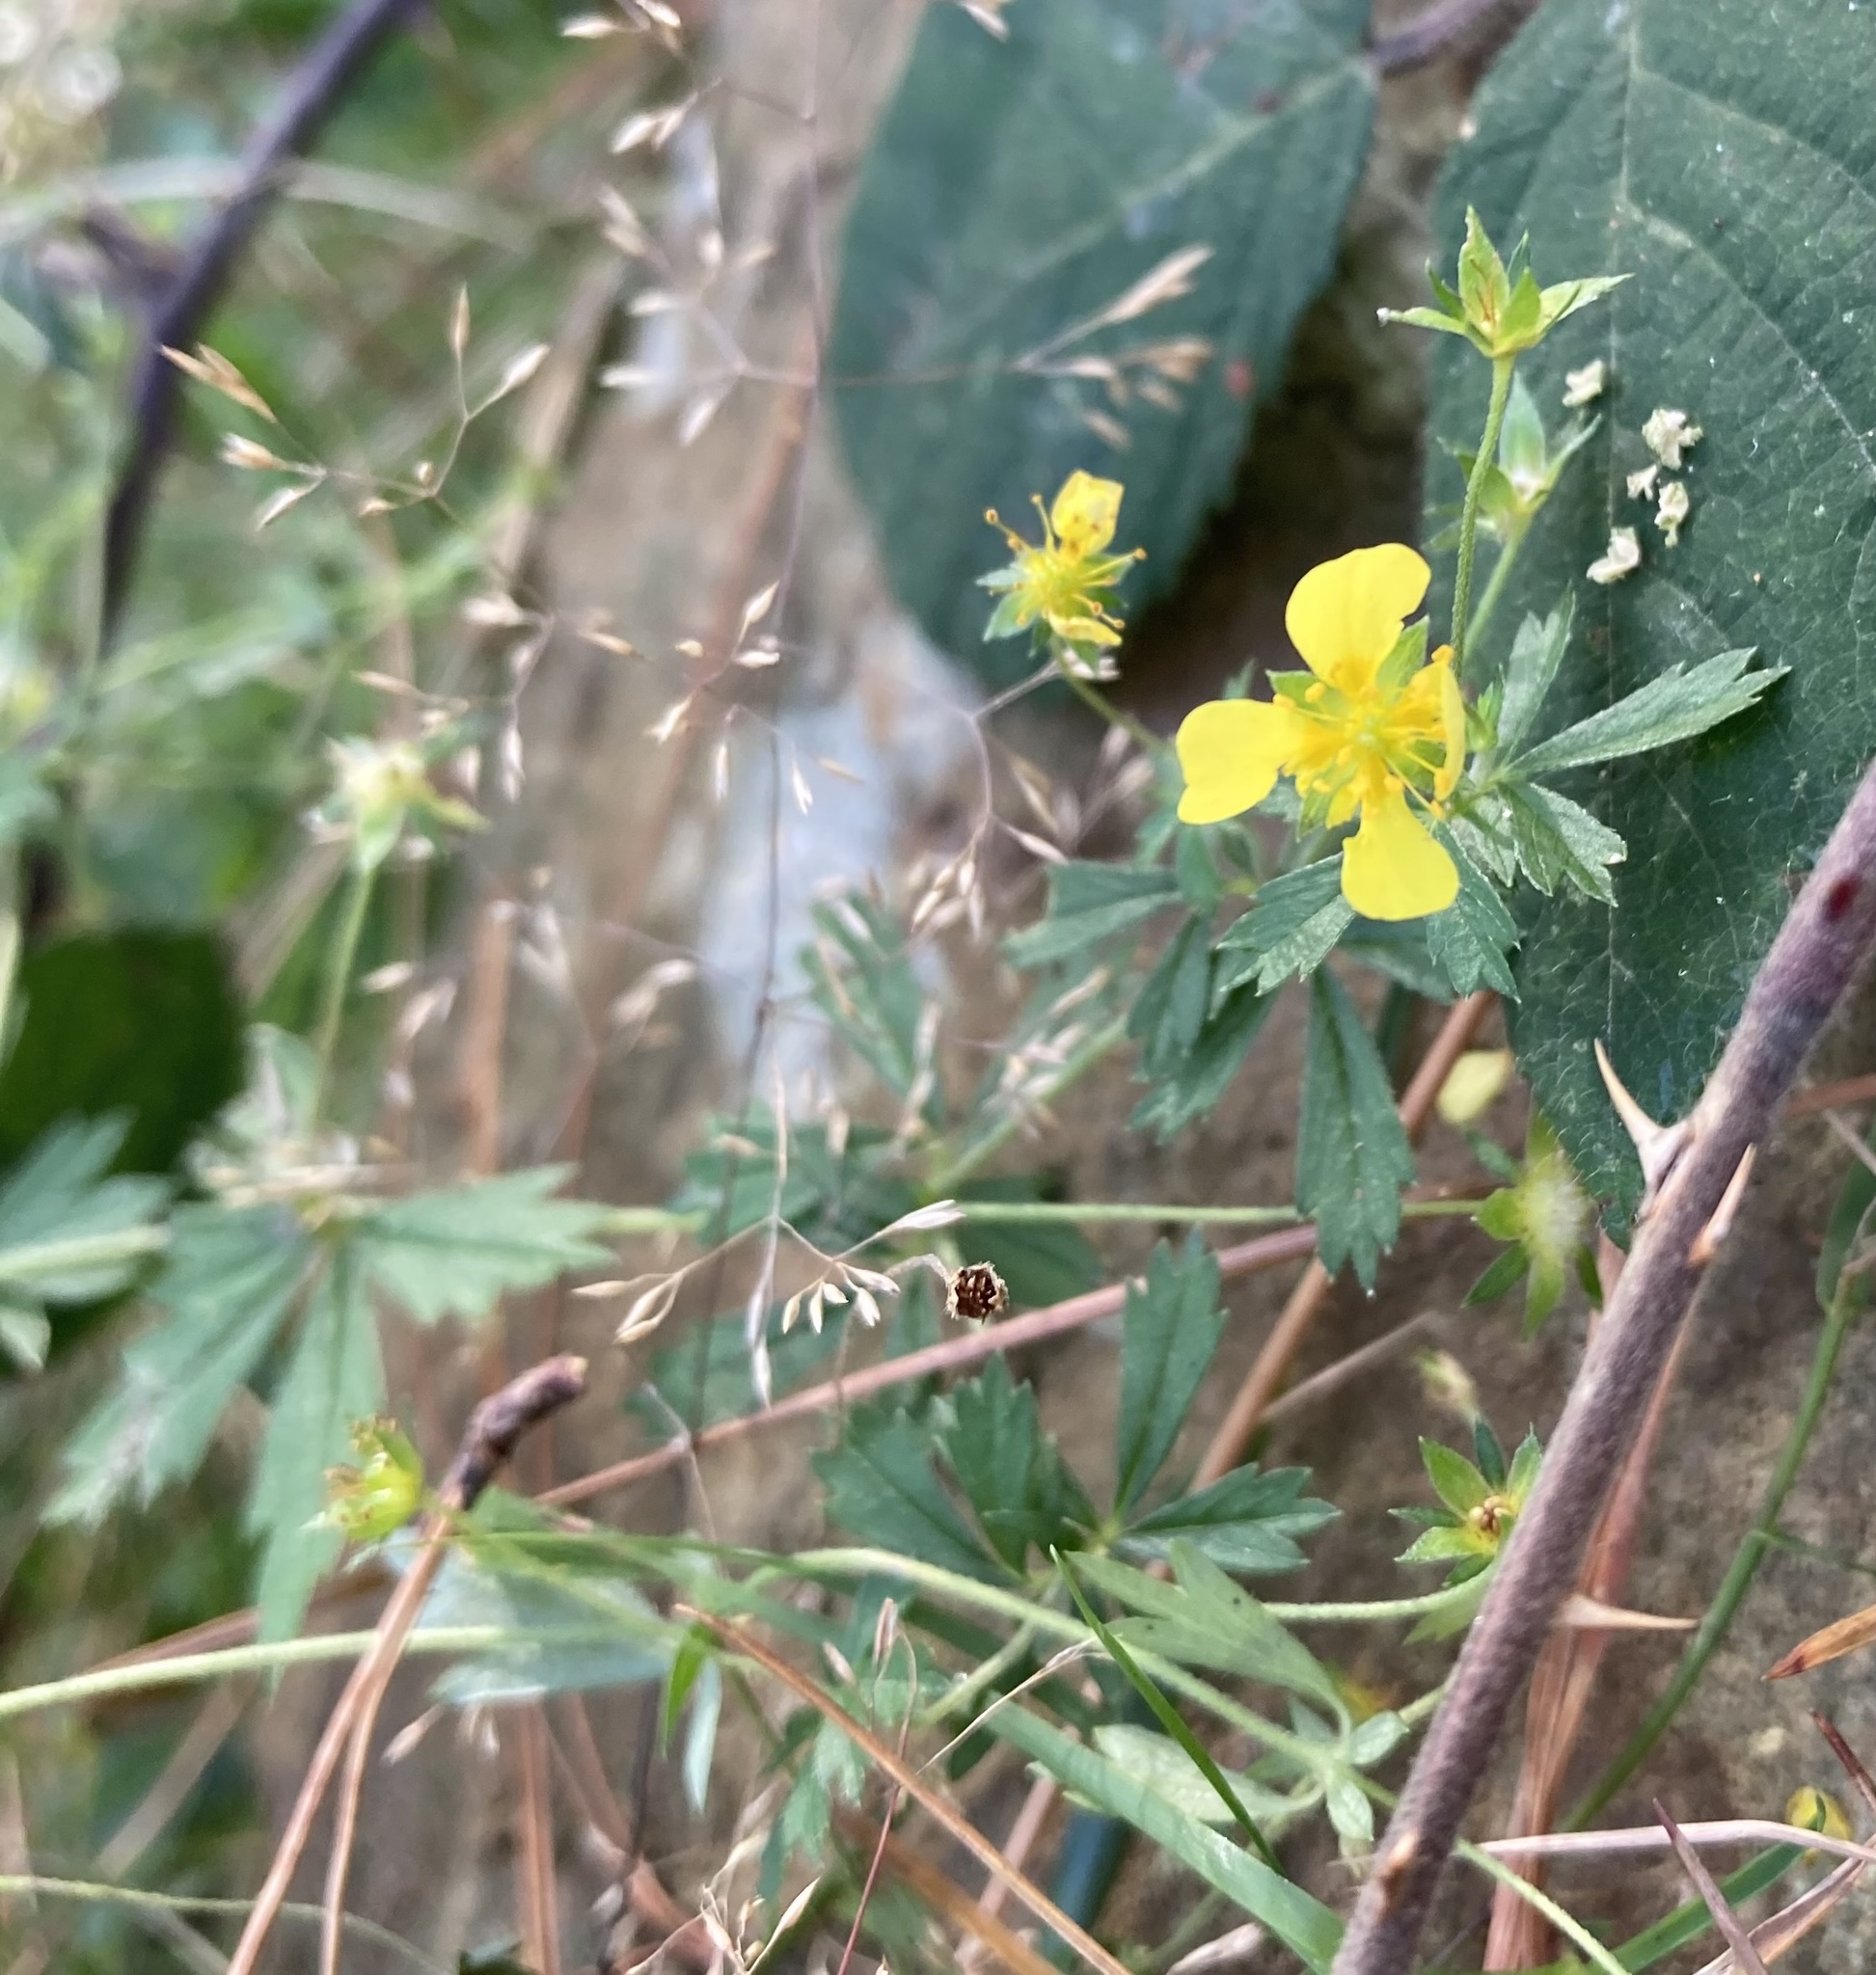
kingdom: Plantae
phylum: Tracheophyta
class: Magnoliopsida
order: Rosales
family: Rosaceae
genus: Potentilla
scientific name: Potentilla erecta
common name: Tormentil
